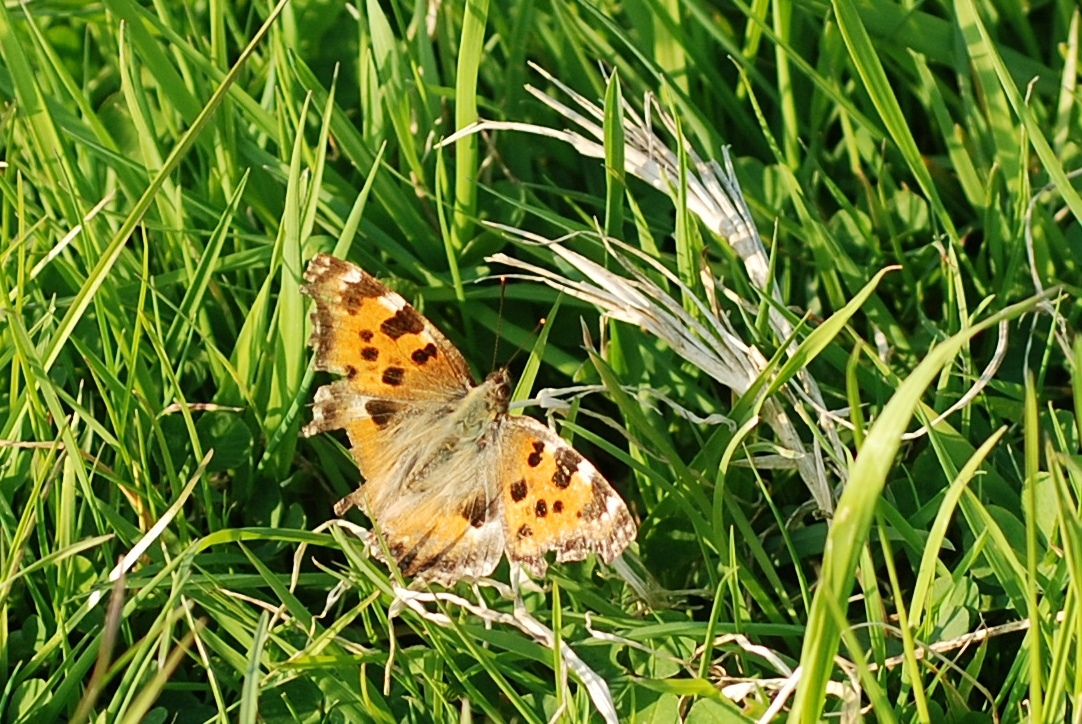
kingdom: Animalia
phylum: Arthropoda
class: Insecta
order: Lepidoptera
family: Nymphalidae
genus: Nymphalis
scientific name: Nymphalis polychloros
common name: Large tortoiseshell
